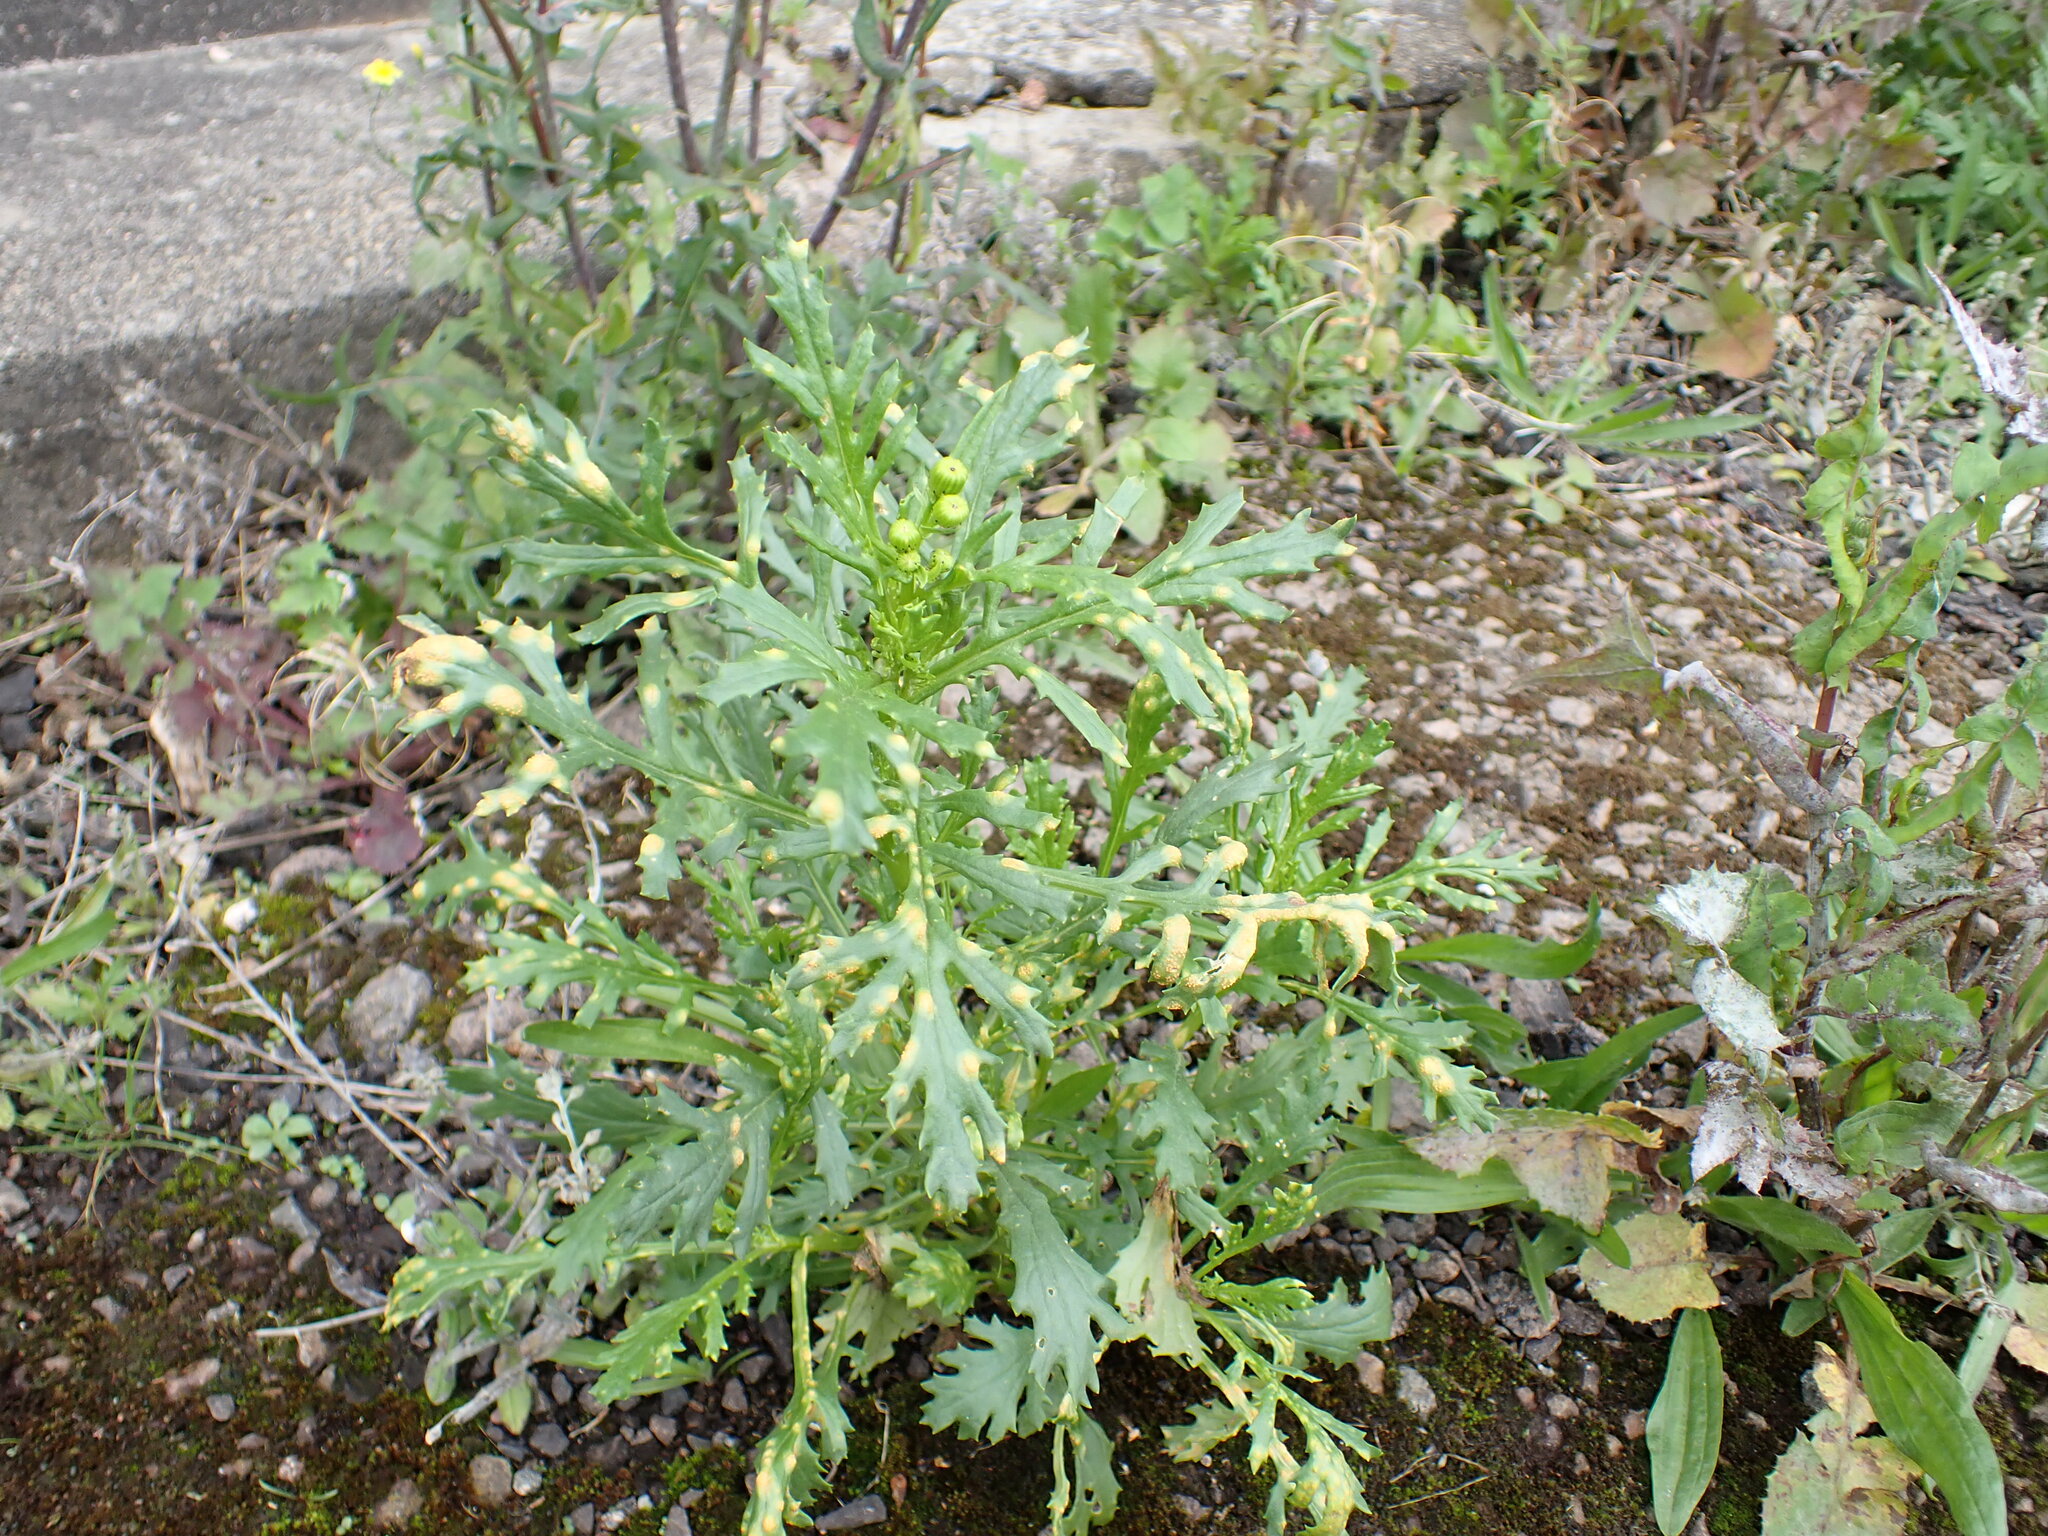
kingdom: Fungi
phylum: Basidiomycota
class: Pucciniomycetes
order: Pucciniales
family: Pucciniaceae
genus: Puccinia
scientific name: Puccinia lagenophorae
